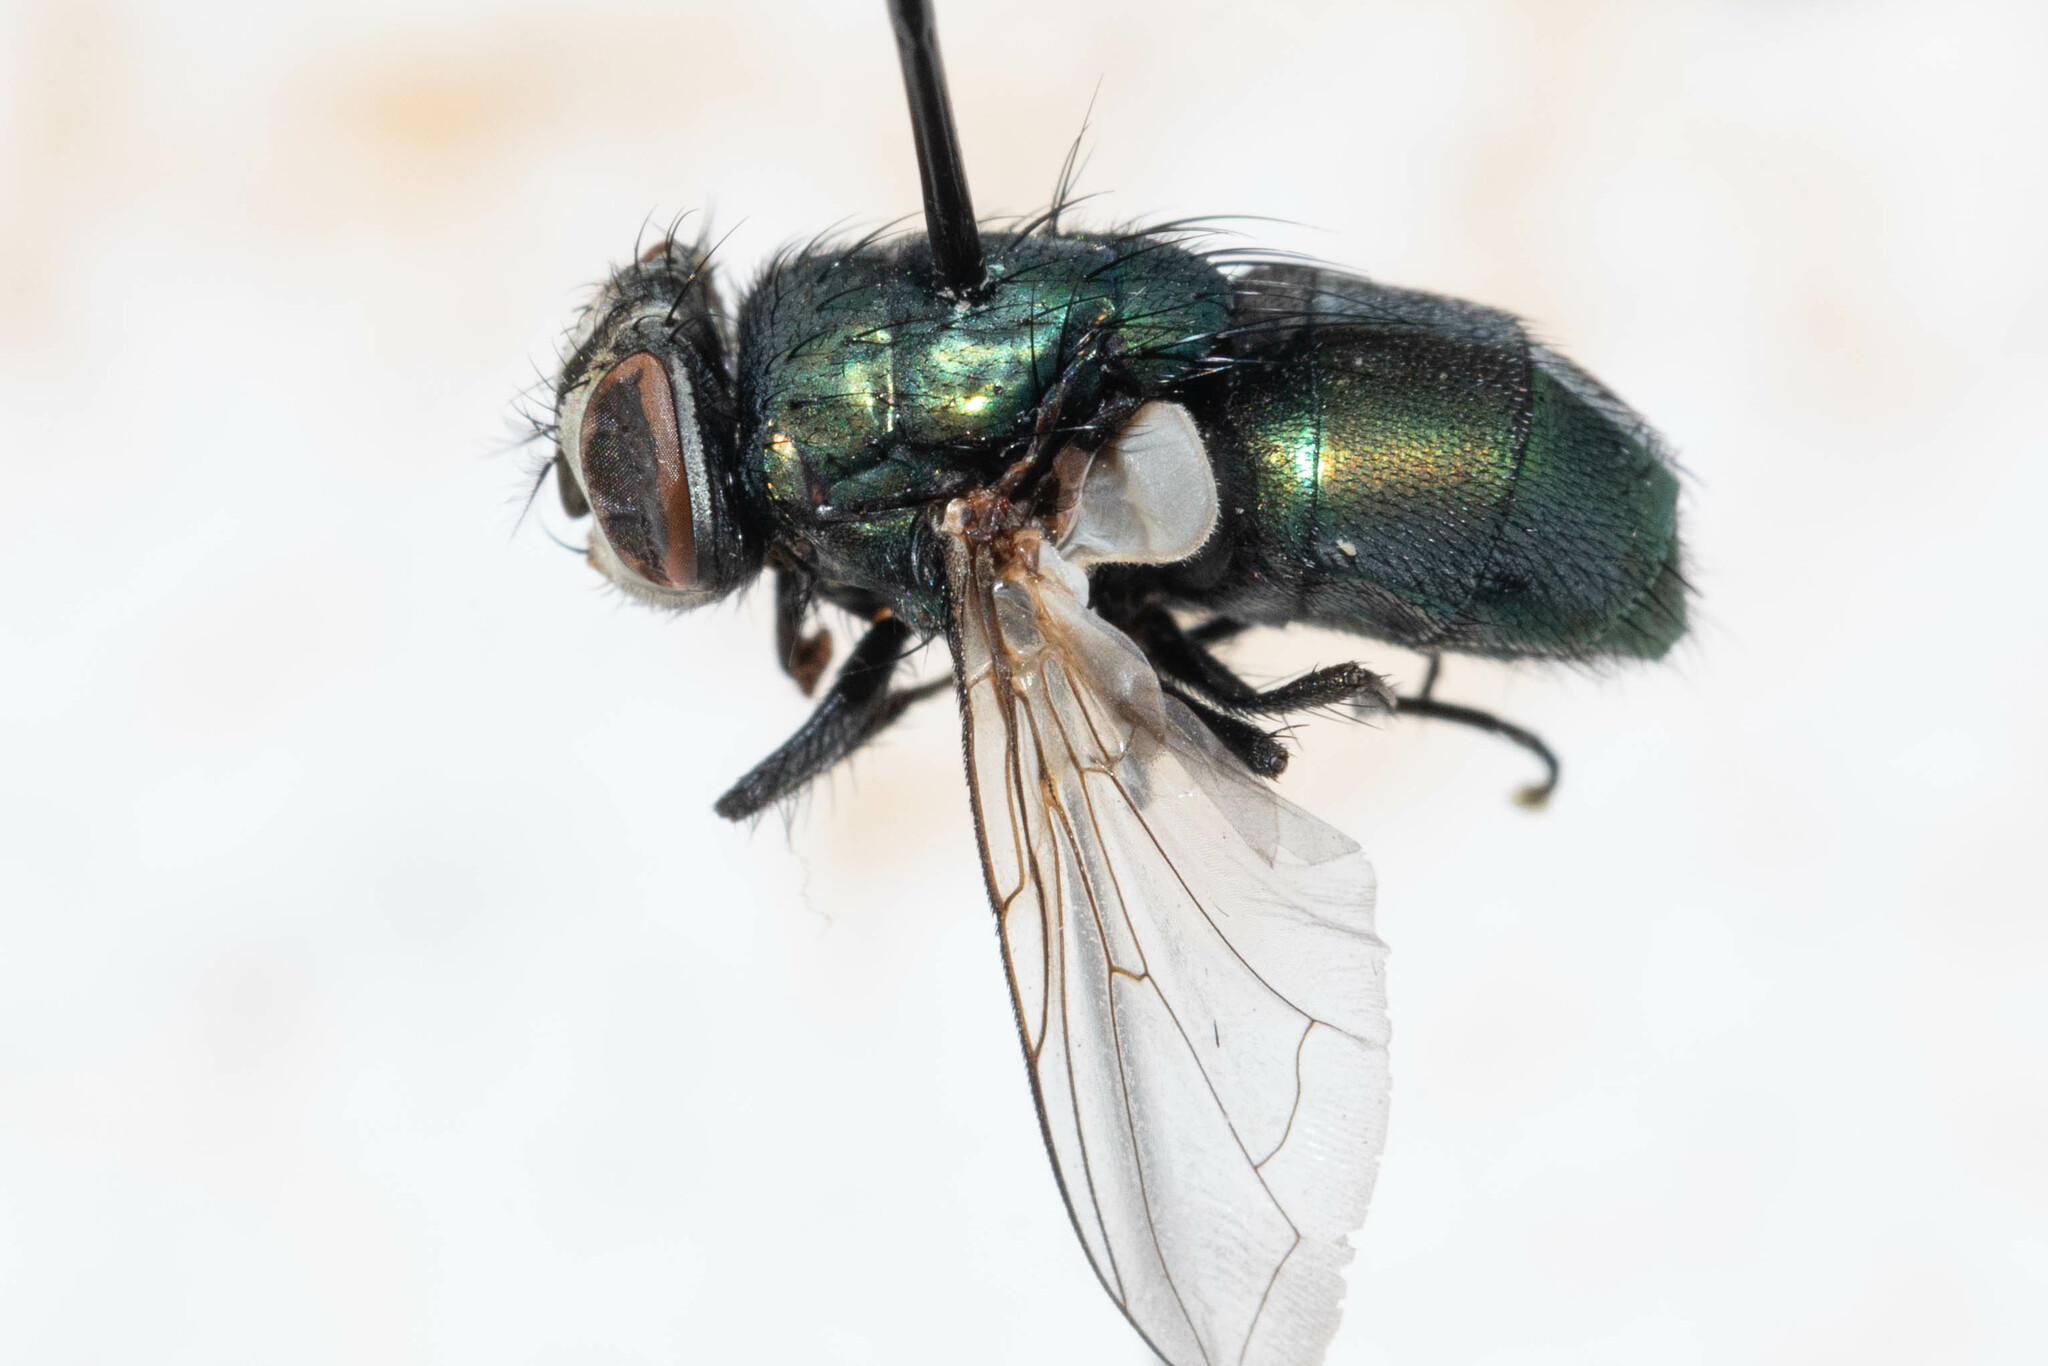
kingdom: Animalia
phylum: Arthropoda
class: Insecta
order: Diptera
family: Calliphoridae
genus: Lucilia
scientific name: Lucilia sericata
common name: Blow fly
